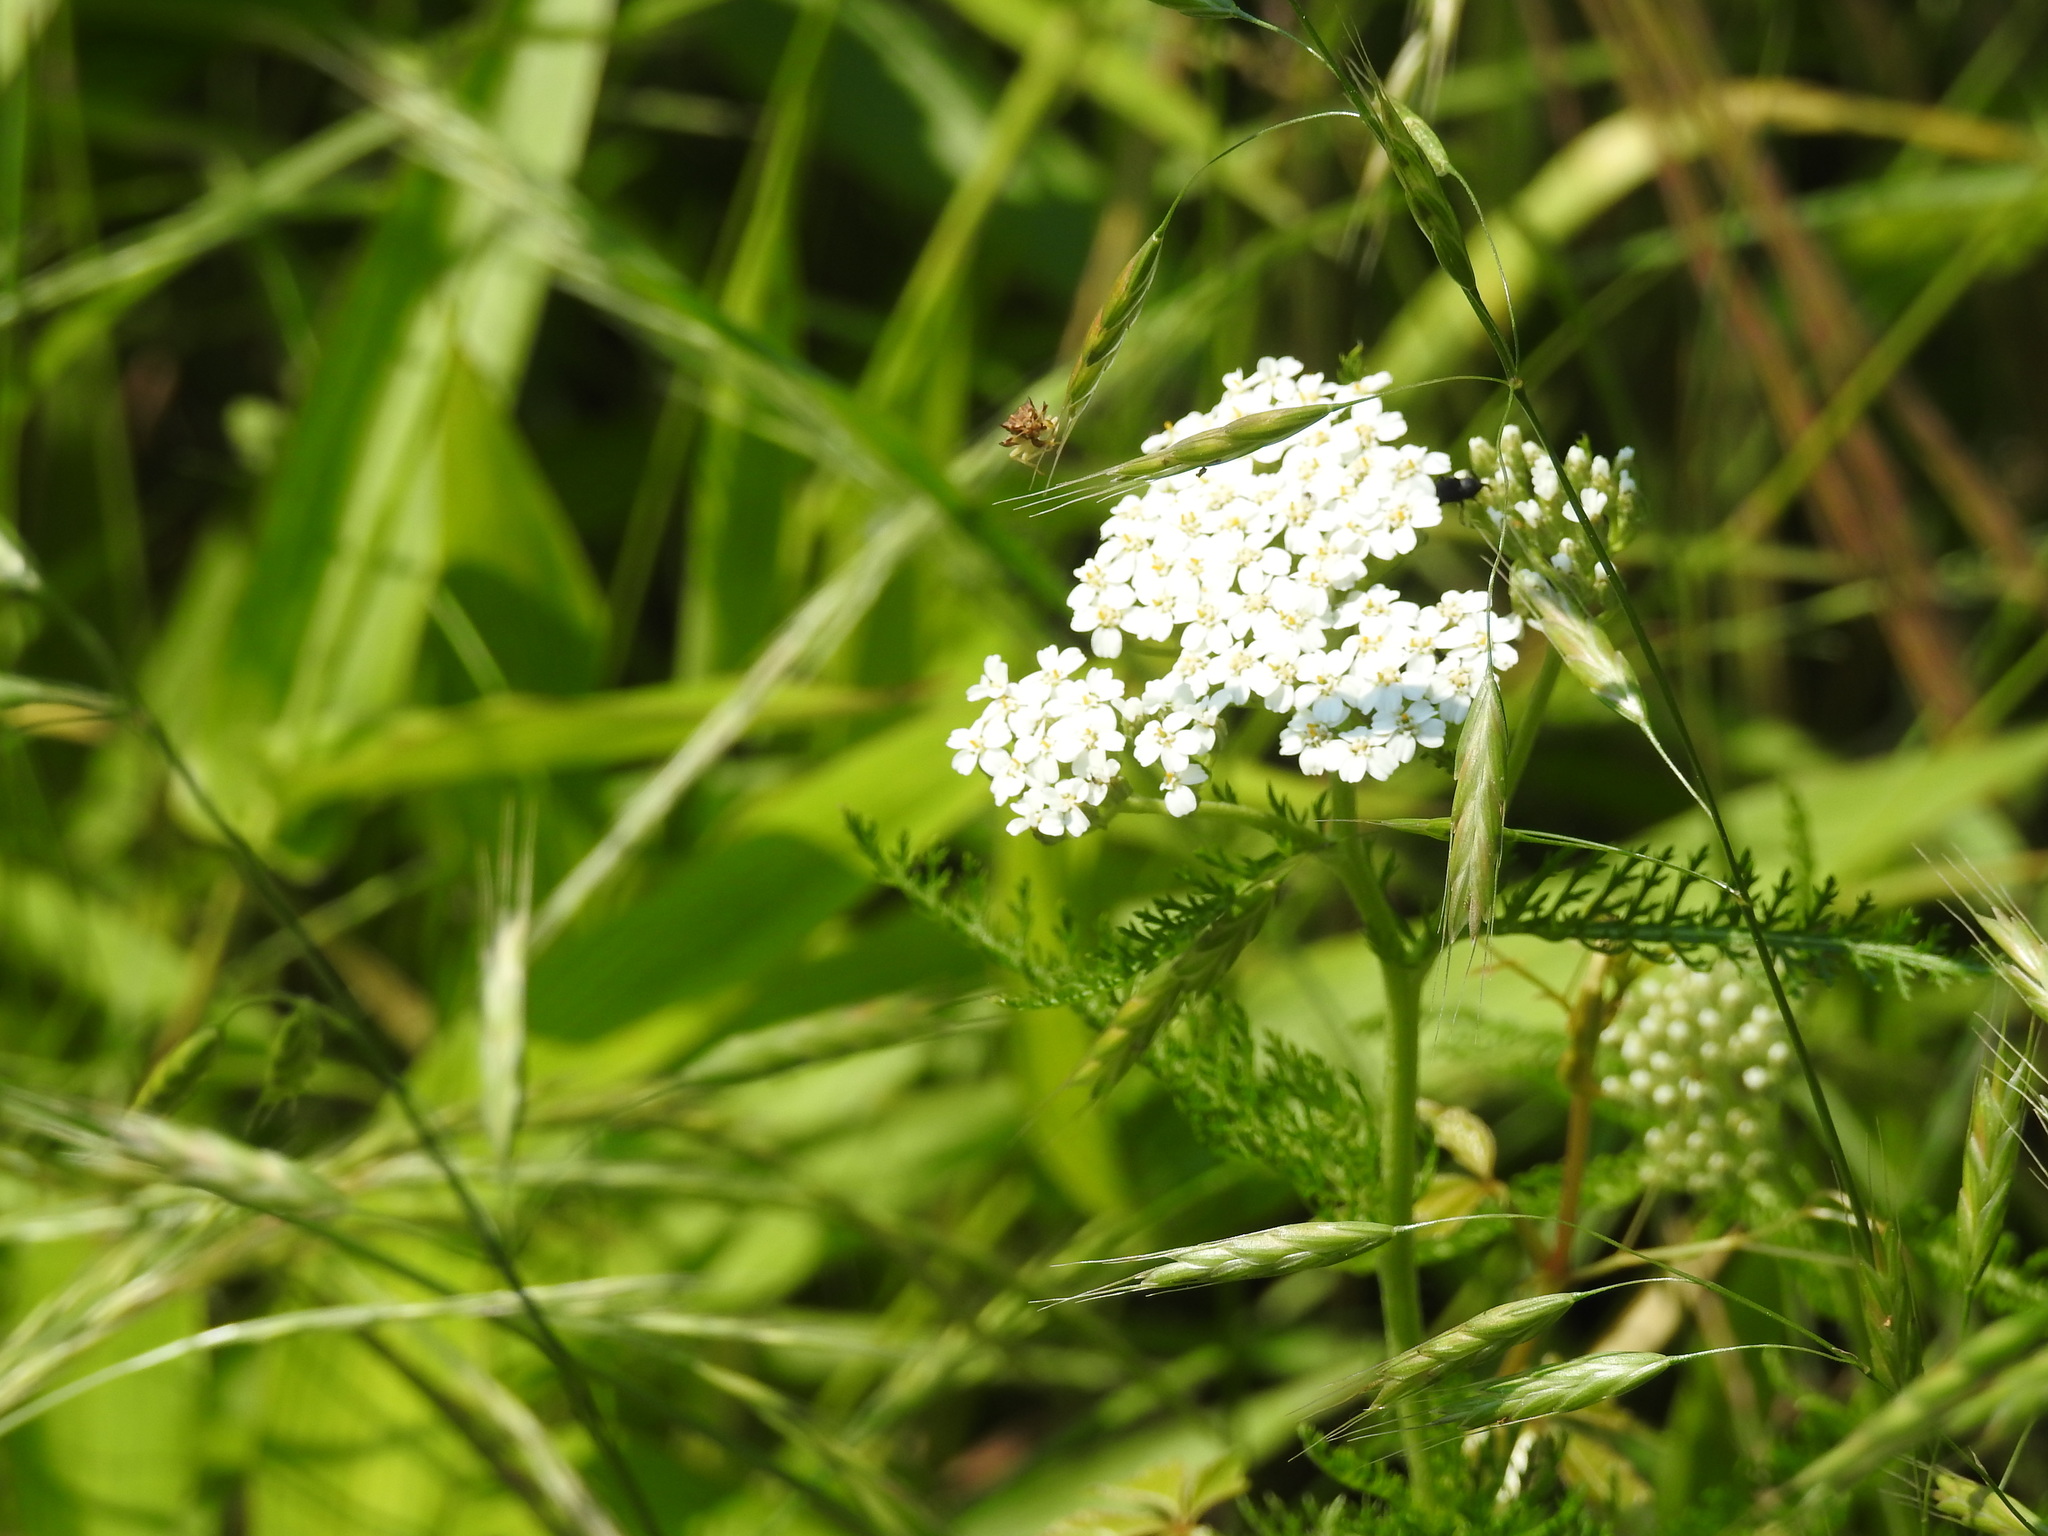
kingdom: Plantae
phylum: Tracheophyta
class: Magnoliopsida
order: Asterales
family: Asteraceae
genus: Achillea
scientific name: Achillea millefolium
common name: Yarrow
